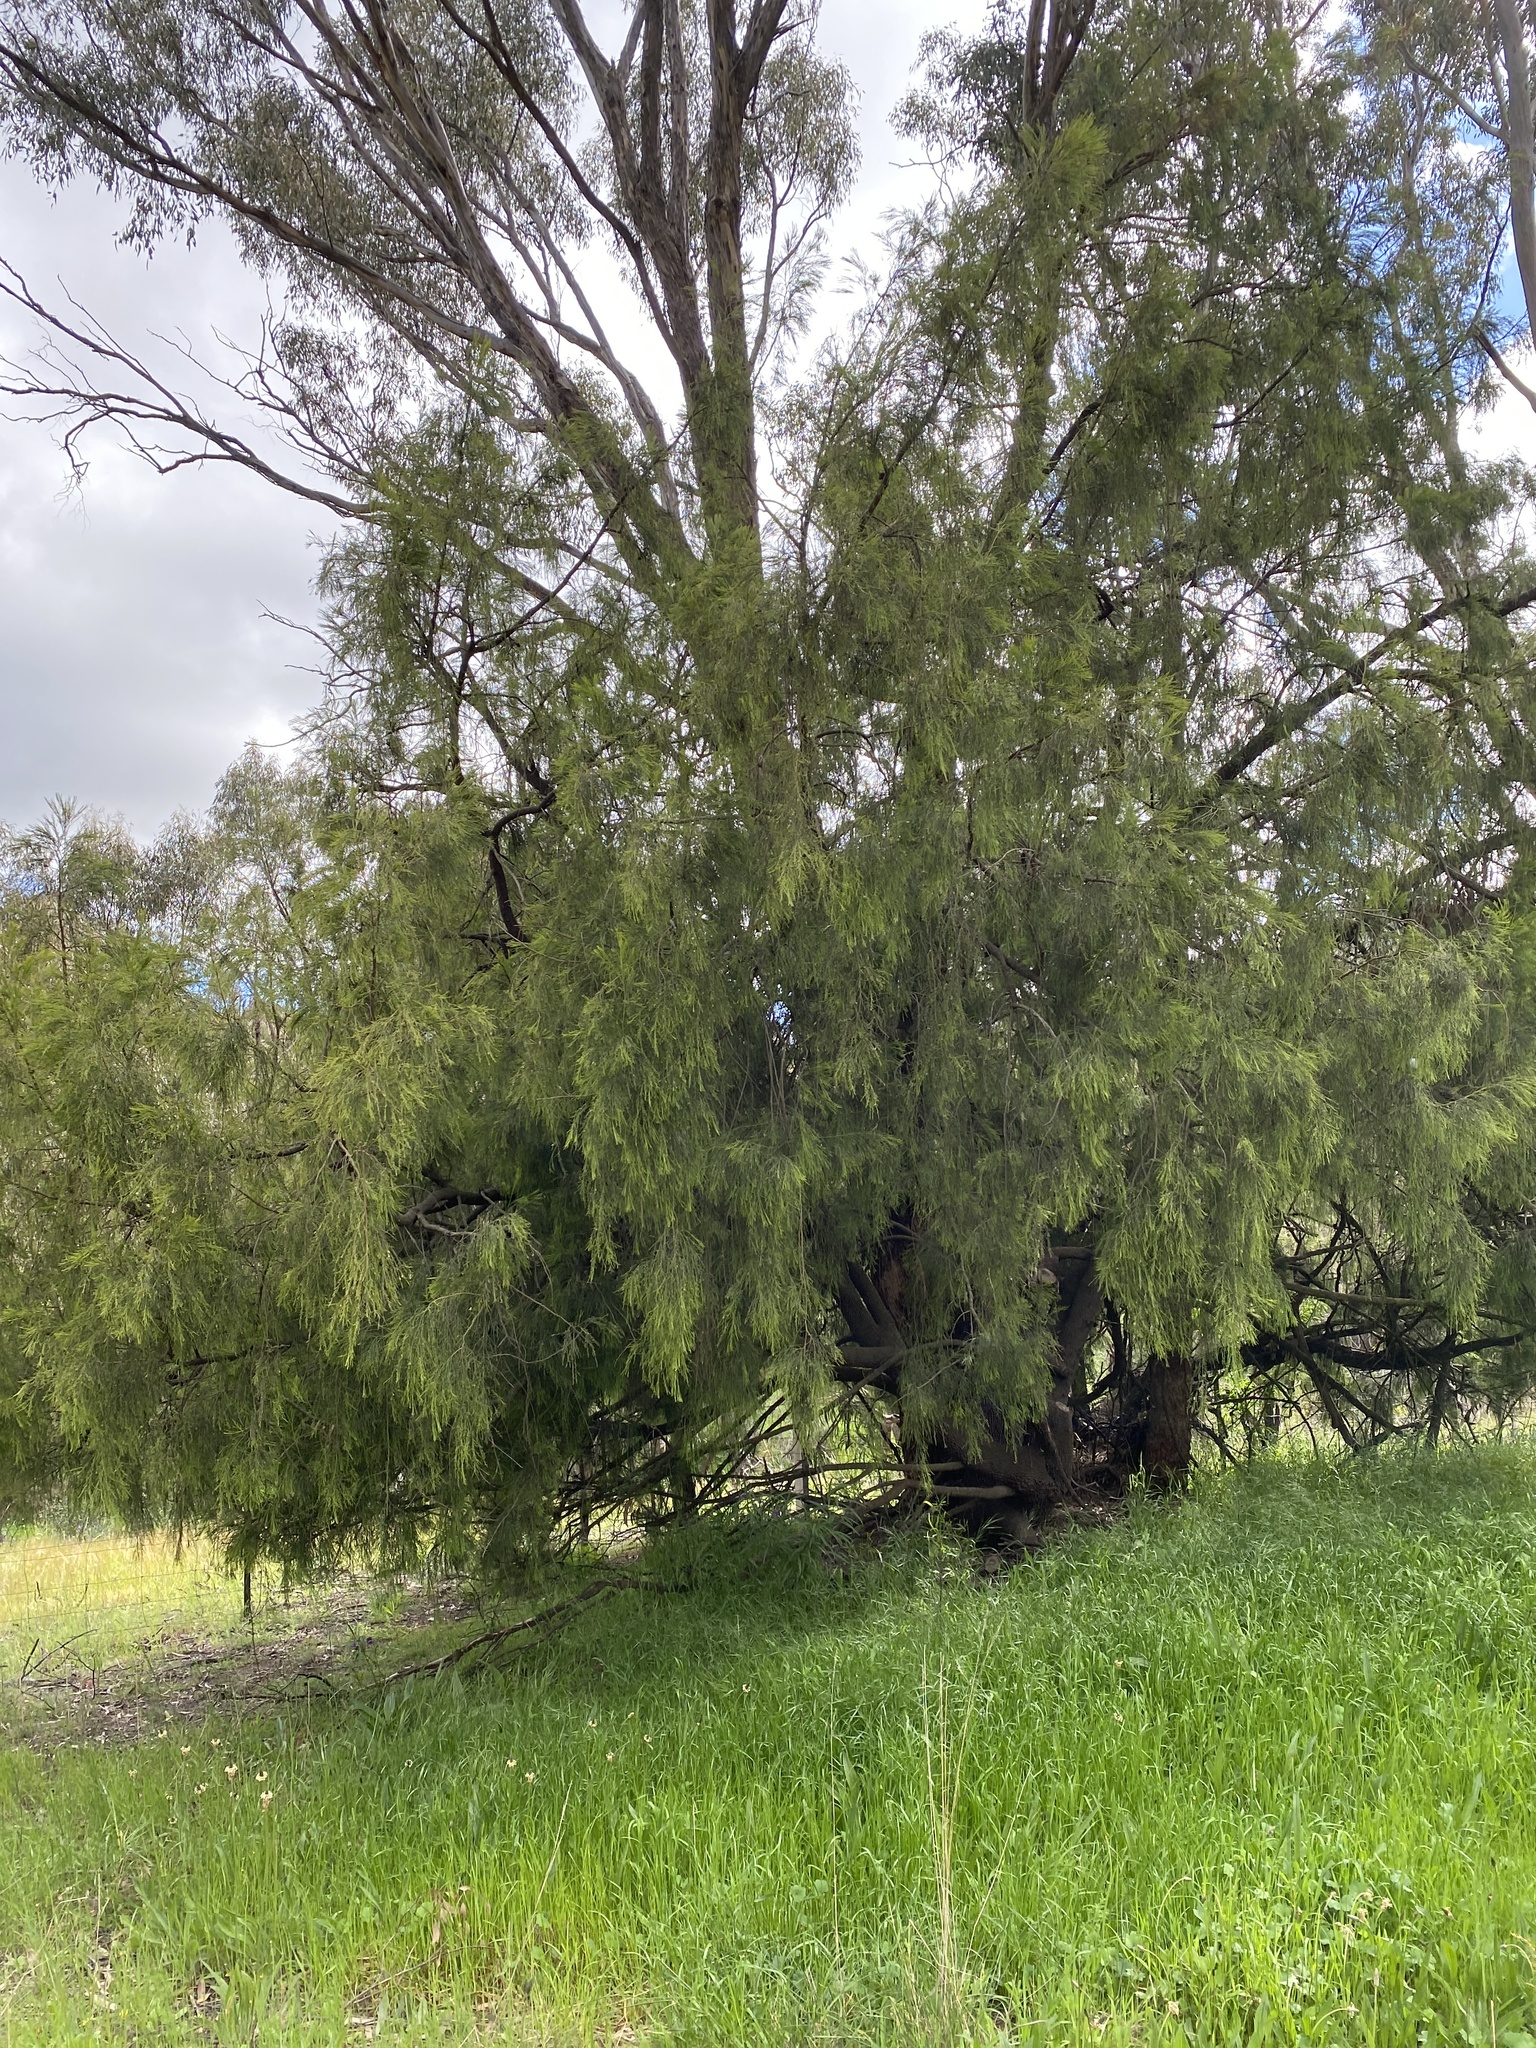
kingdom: Plantae
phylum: Tracheophyta
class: Magnoliopsida
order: Santalales
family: Santalaceae
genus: Exocarpos
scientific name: Exocarpos cupressiformis
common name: Cherry ballart
